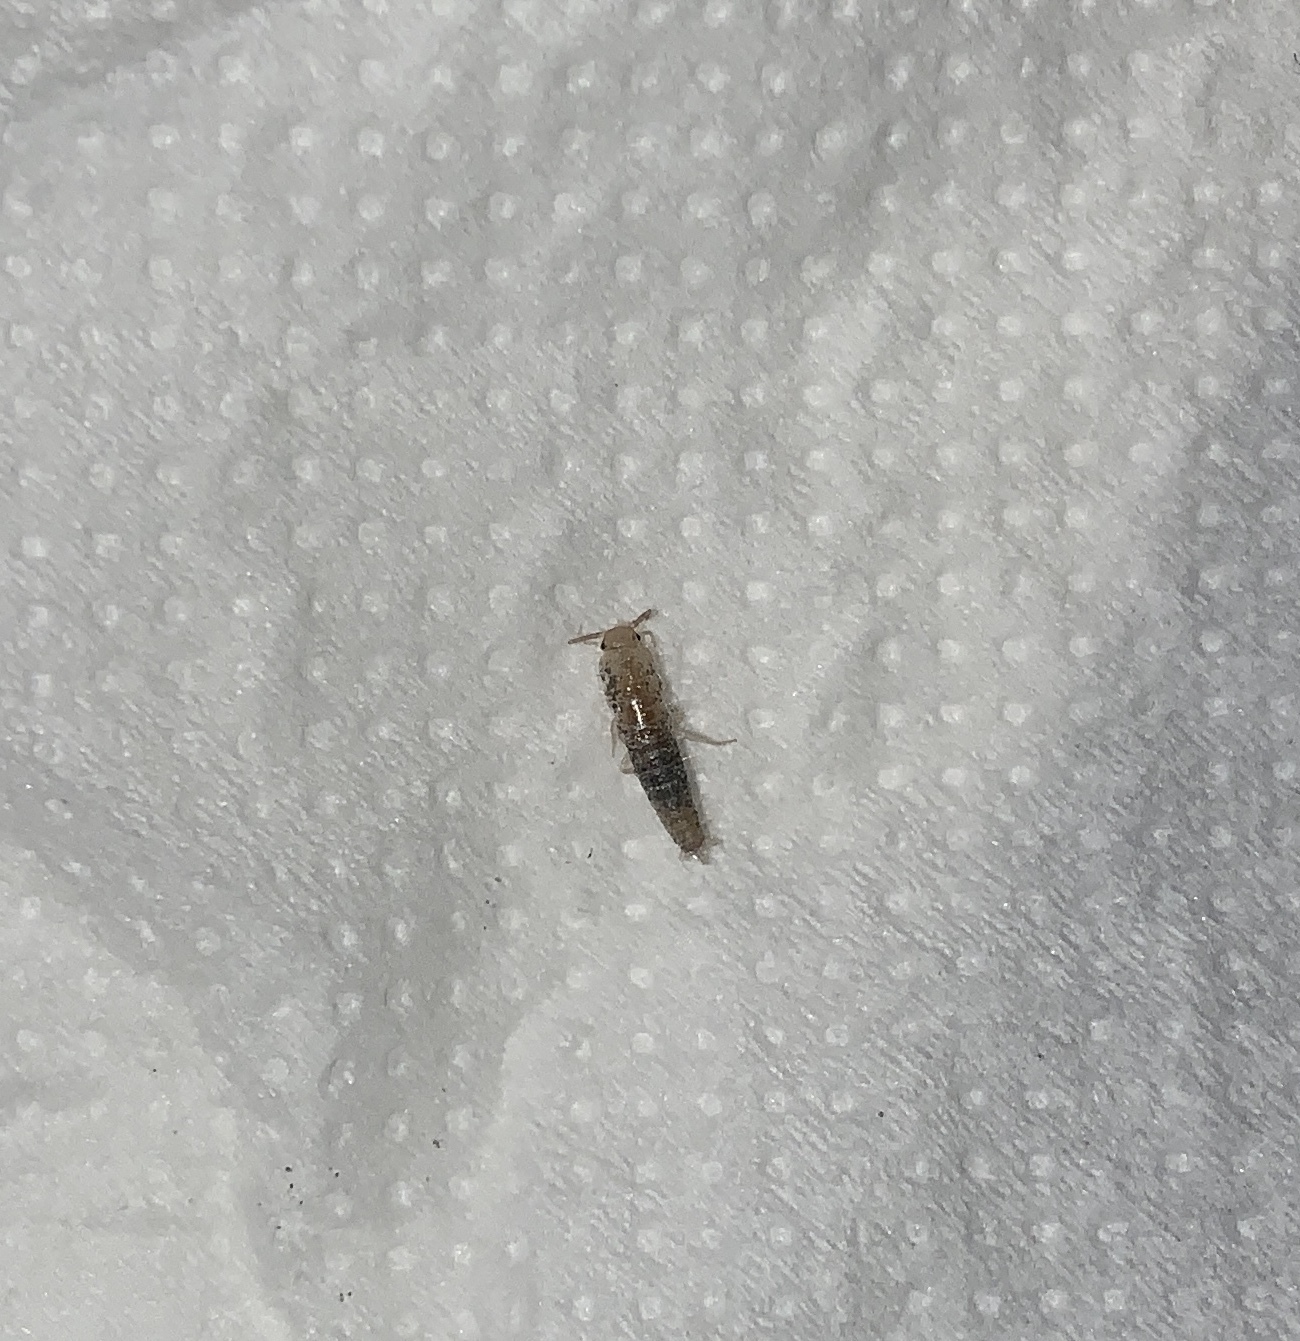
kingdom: Animalia
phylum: Arthropoda
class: Insecta
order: Zygentoma
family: Lepismatidae
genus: Lepisma
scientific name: Lepisma saccharinum
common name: Silverfish
